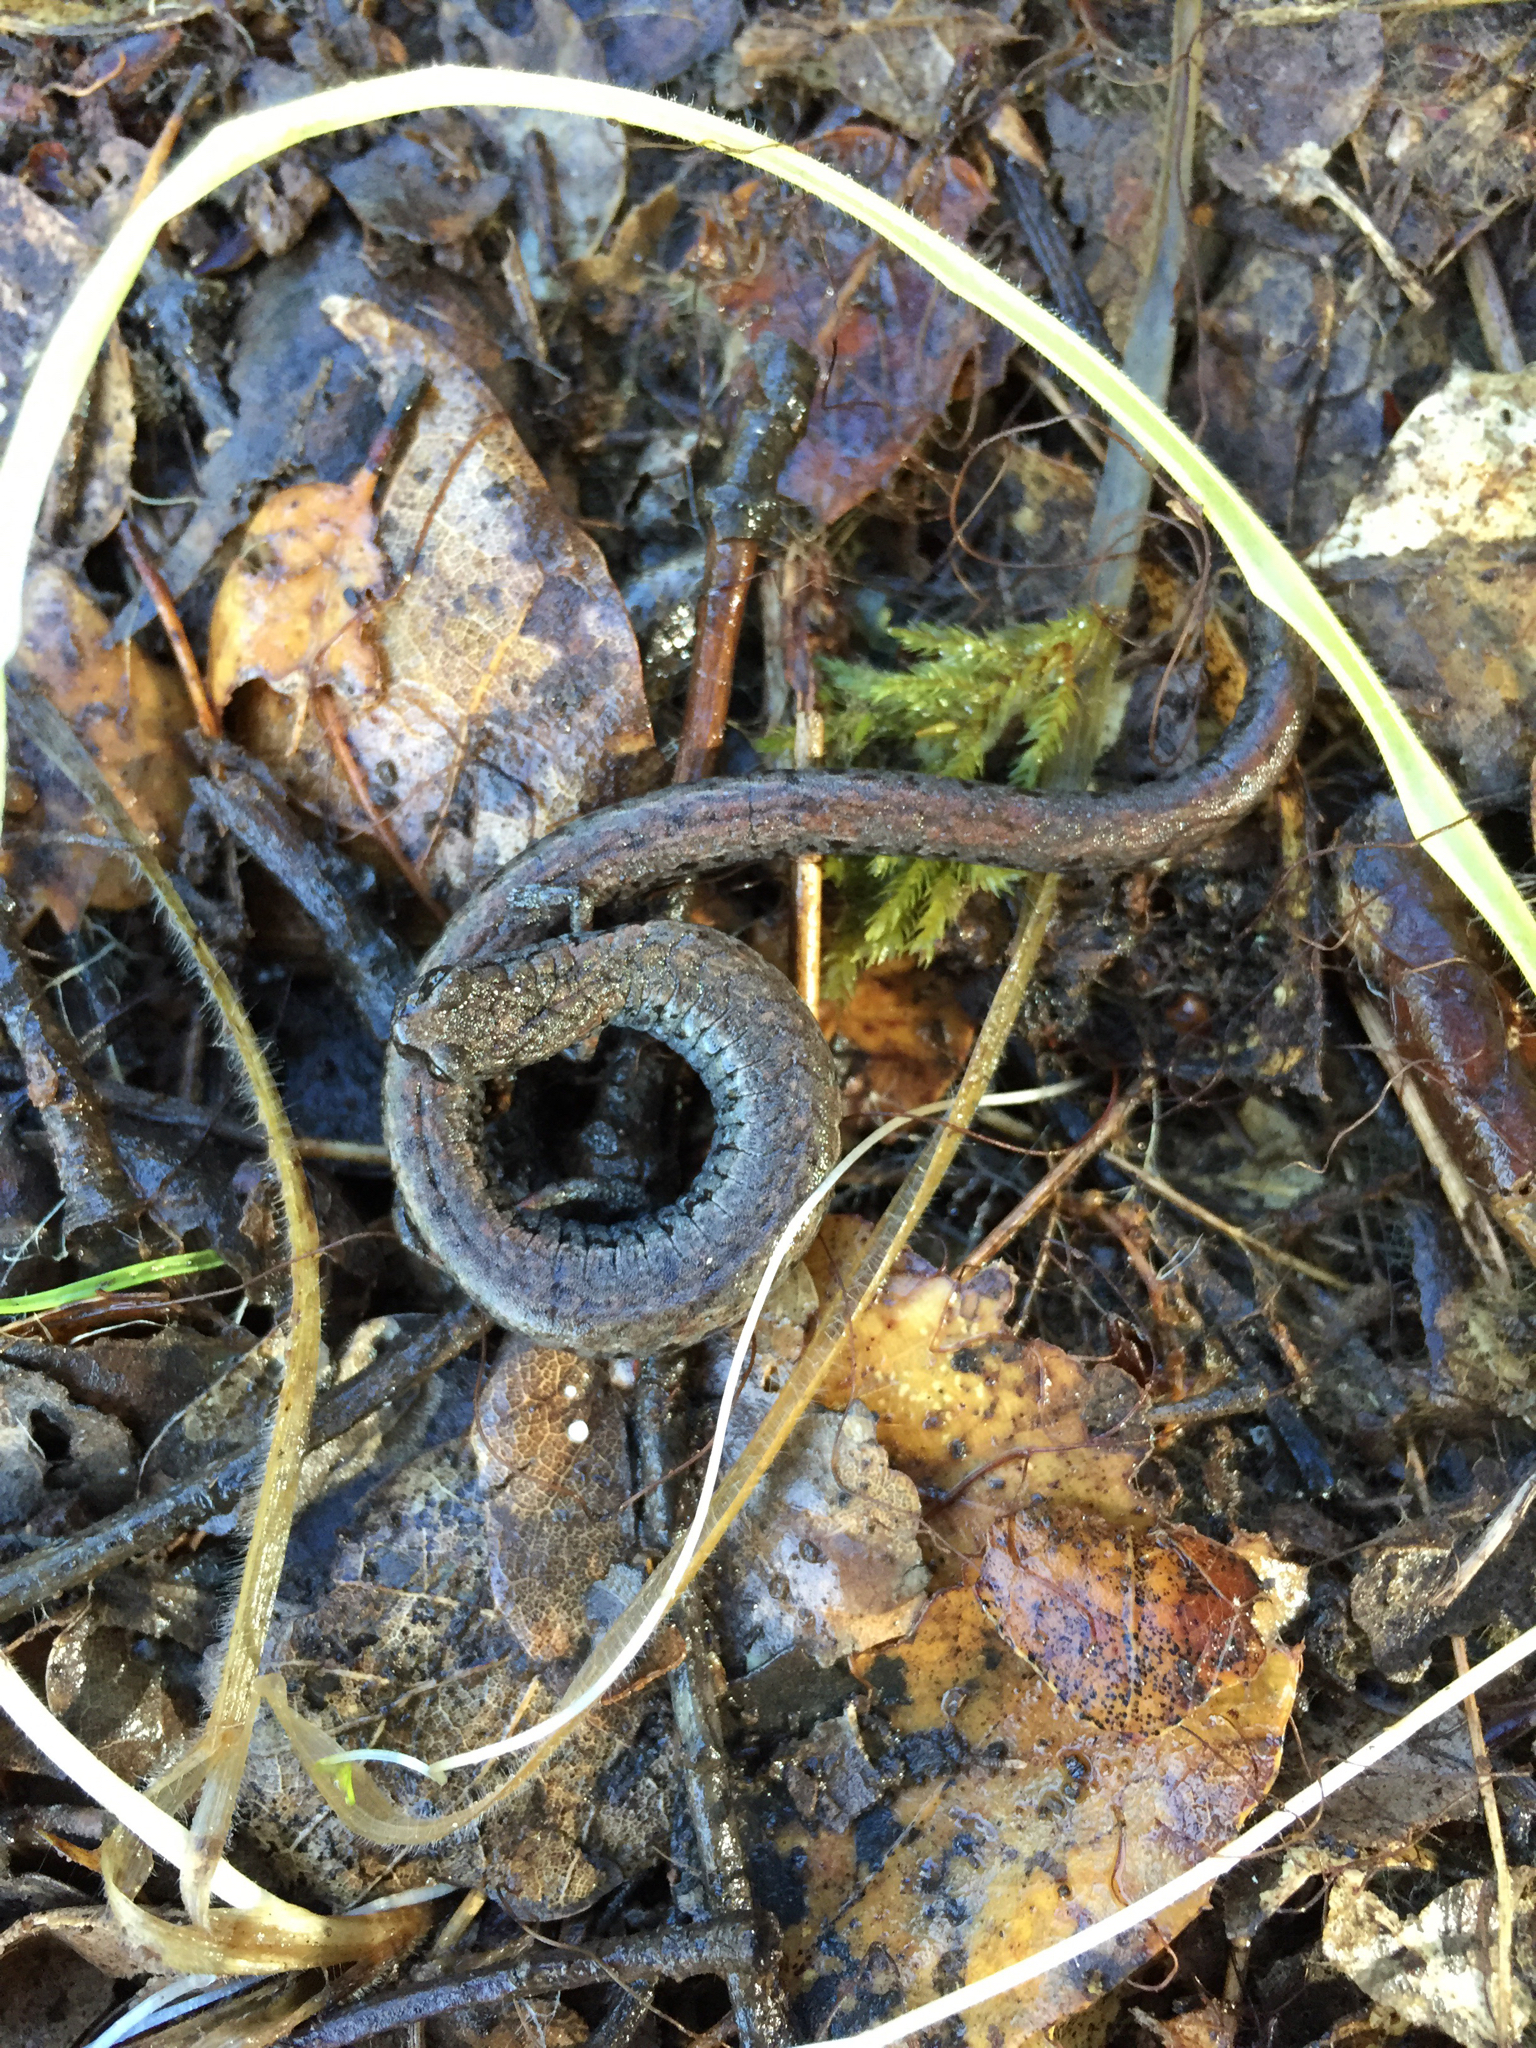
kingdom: Animalia
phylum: Chordata
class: Amphibia
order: Caudata
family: Plethodontidae
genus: Batrachoseps
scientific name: Batrachoseps attenuatus
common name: California slender salamander
